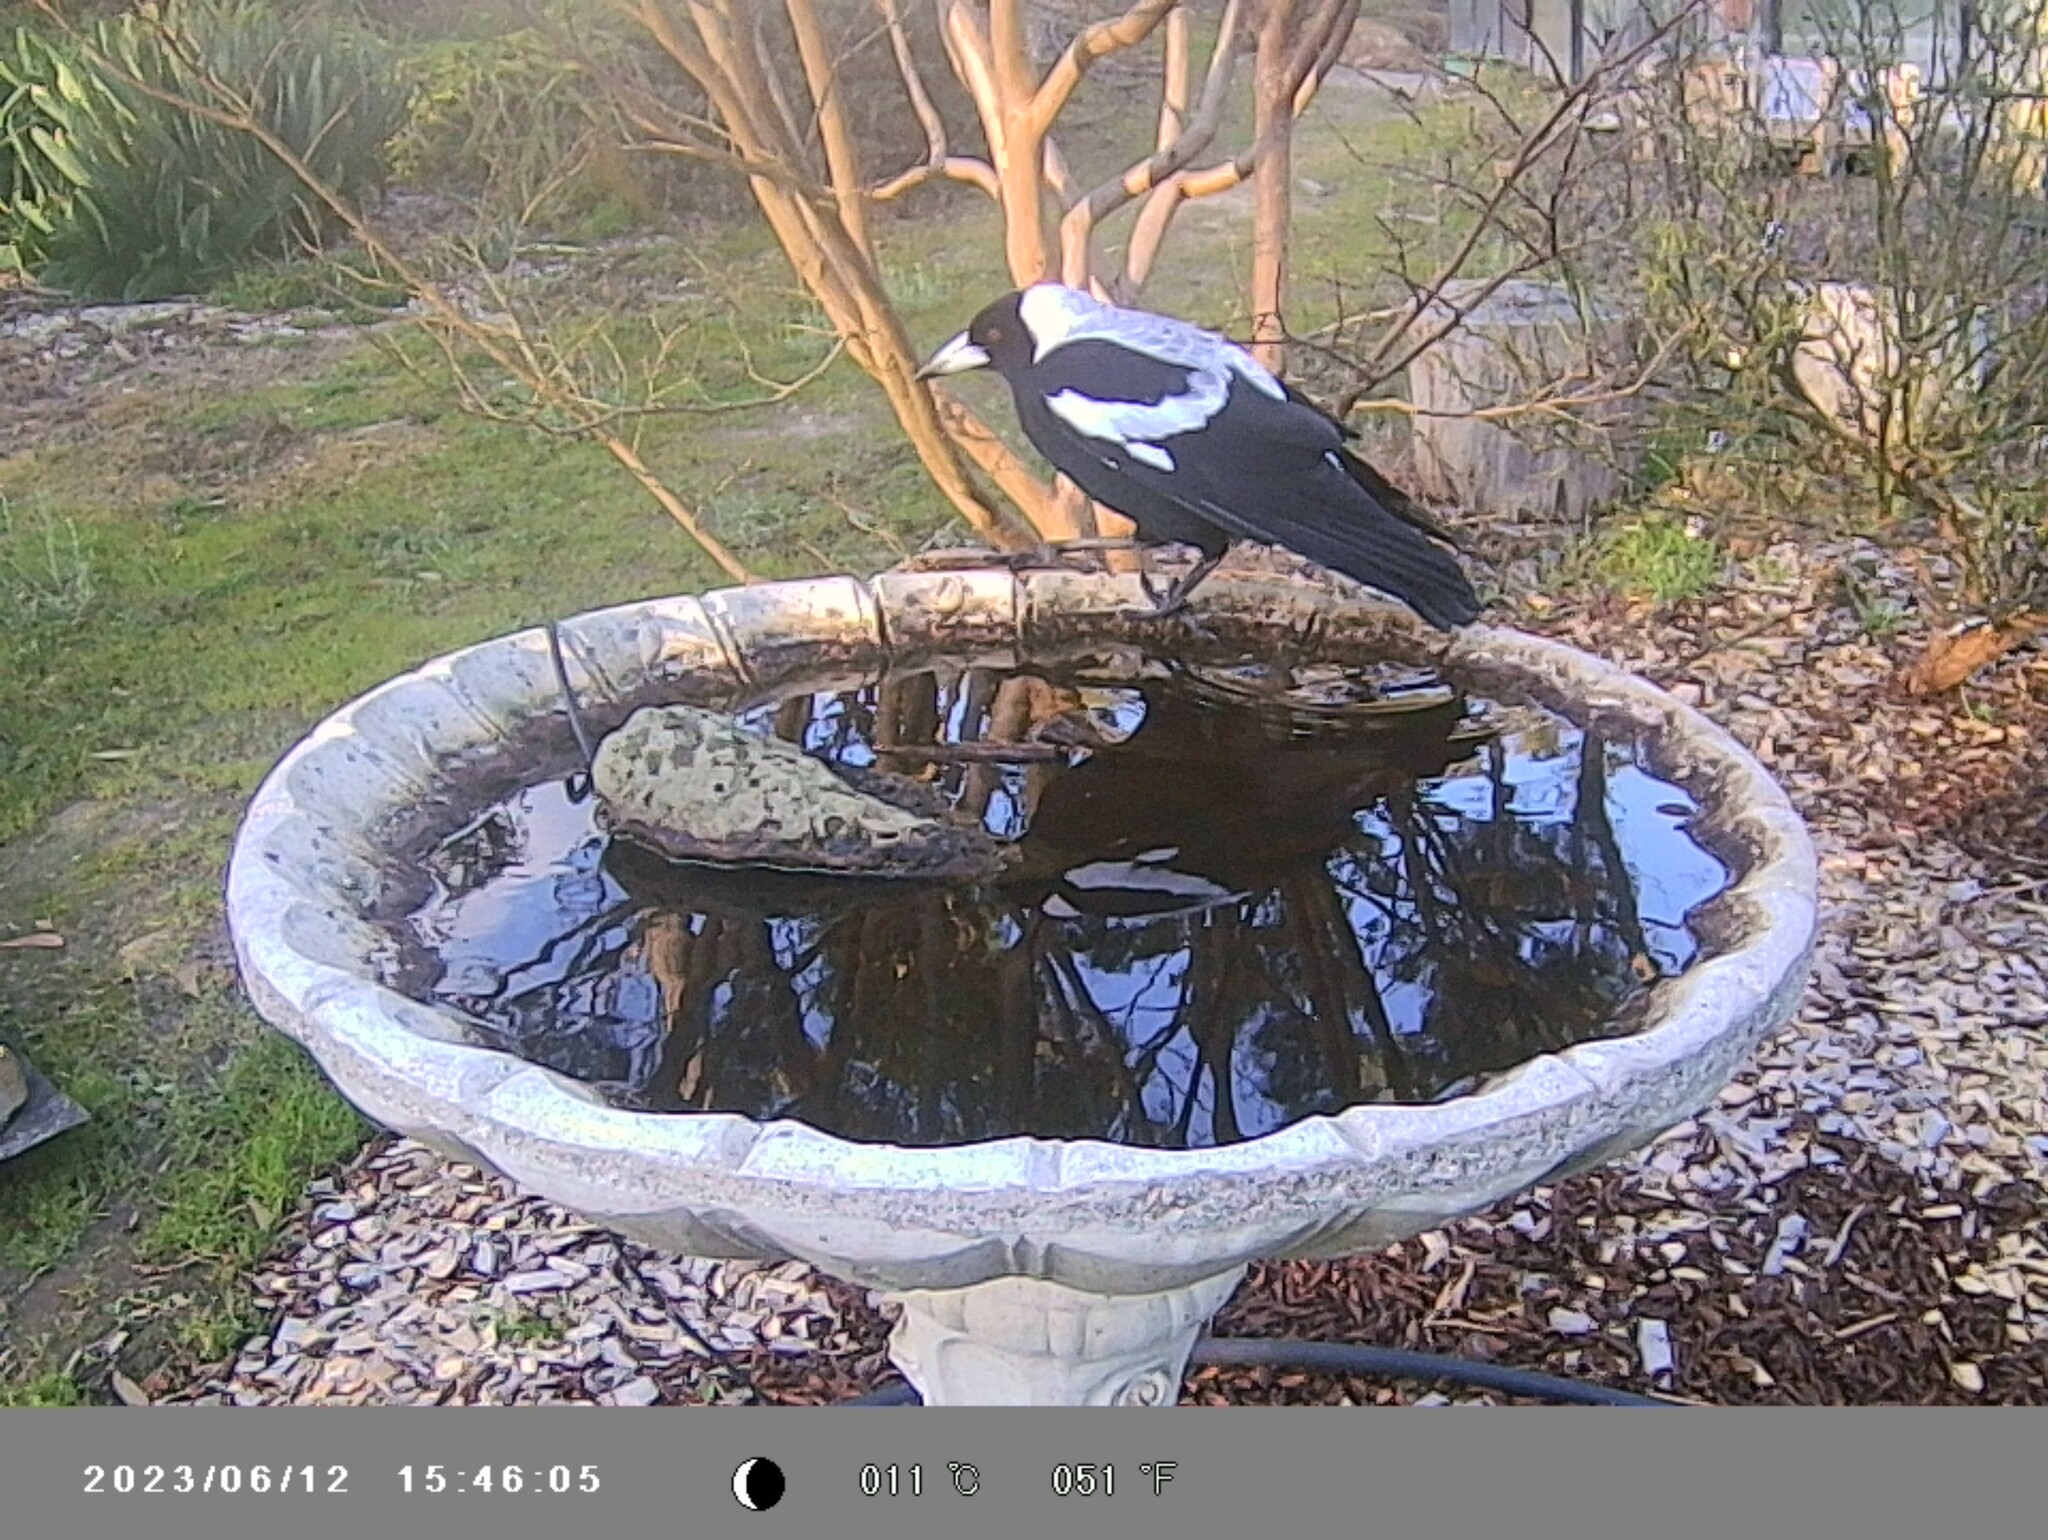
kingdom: Animalia
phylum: Chordata
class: Aves
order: Passeriformes
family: Cracticidae
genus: Gymnorhina
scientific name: Gymnorhina tibicen
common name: Australian magpie
